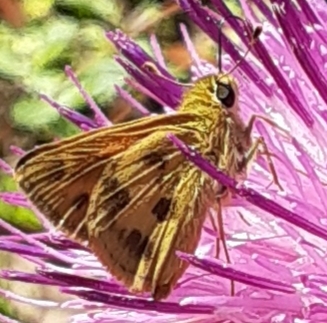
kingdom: Animalia
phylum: Arthropoda
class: Insecta
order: Lepidoptera
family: Hesperiidae
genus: Polites
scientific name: Polites vibex
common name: Whirlabout
